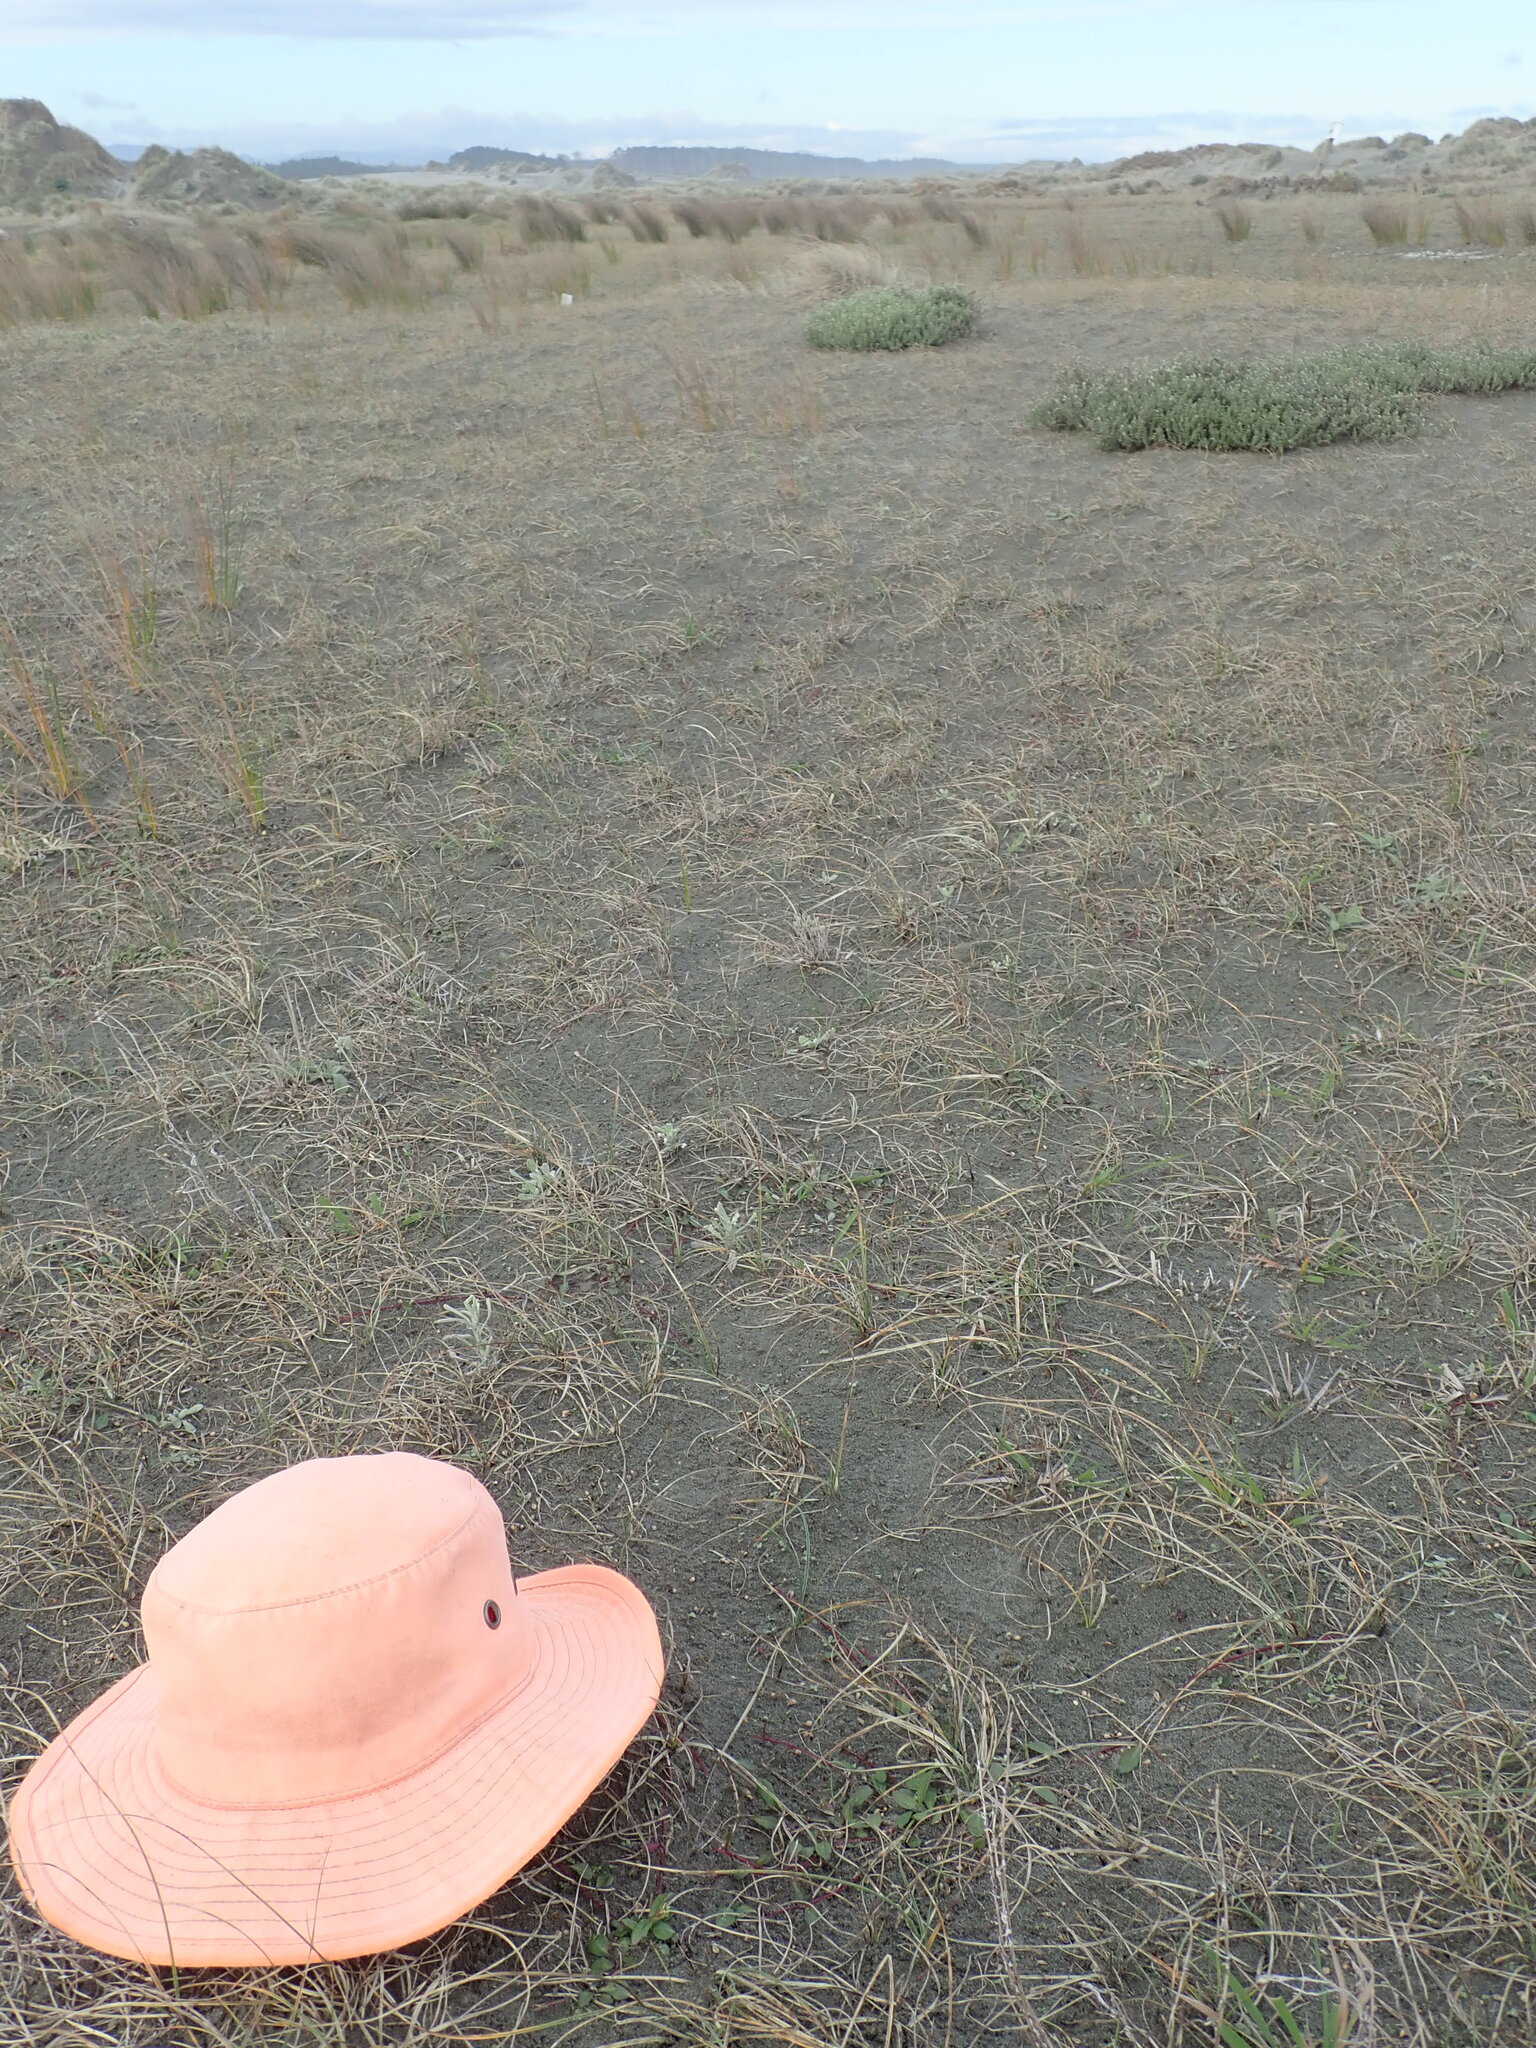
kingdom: Plantae
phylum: Tracheophyta
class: Magnoliopsida
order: Asterales
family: Campanulaceae
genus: Lobelia
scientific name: Lobelia anceps
